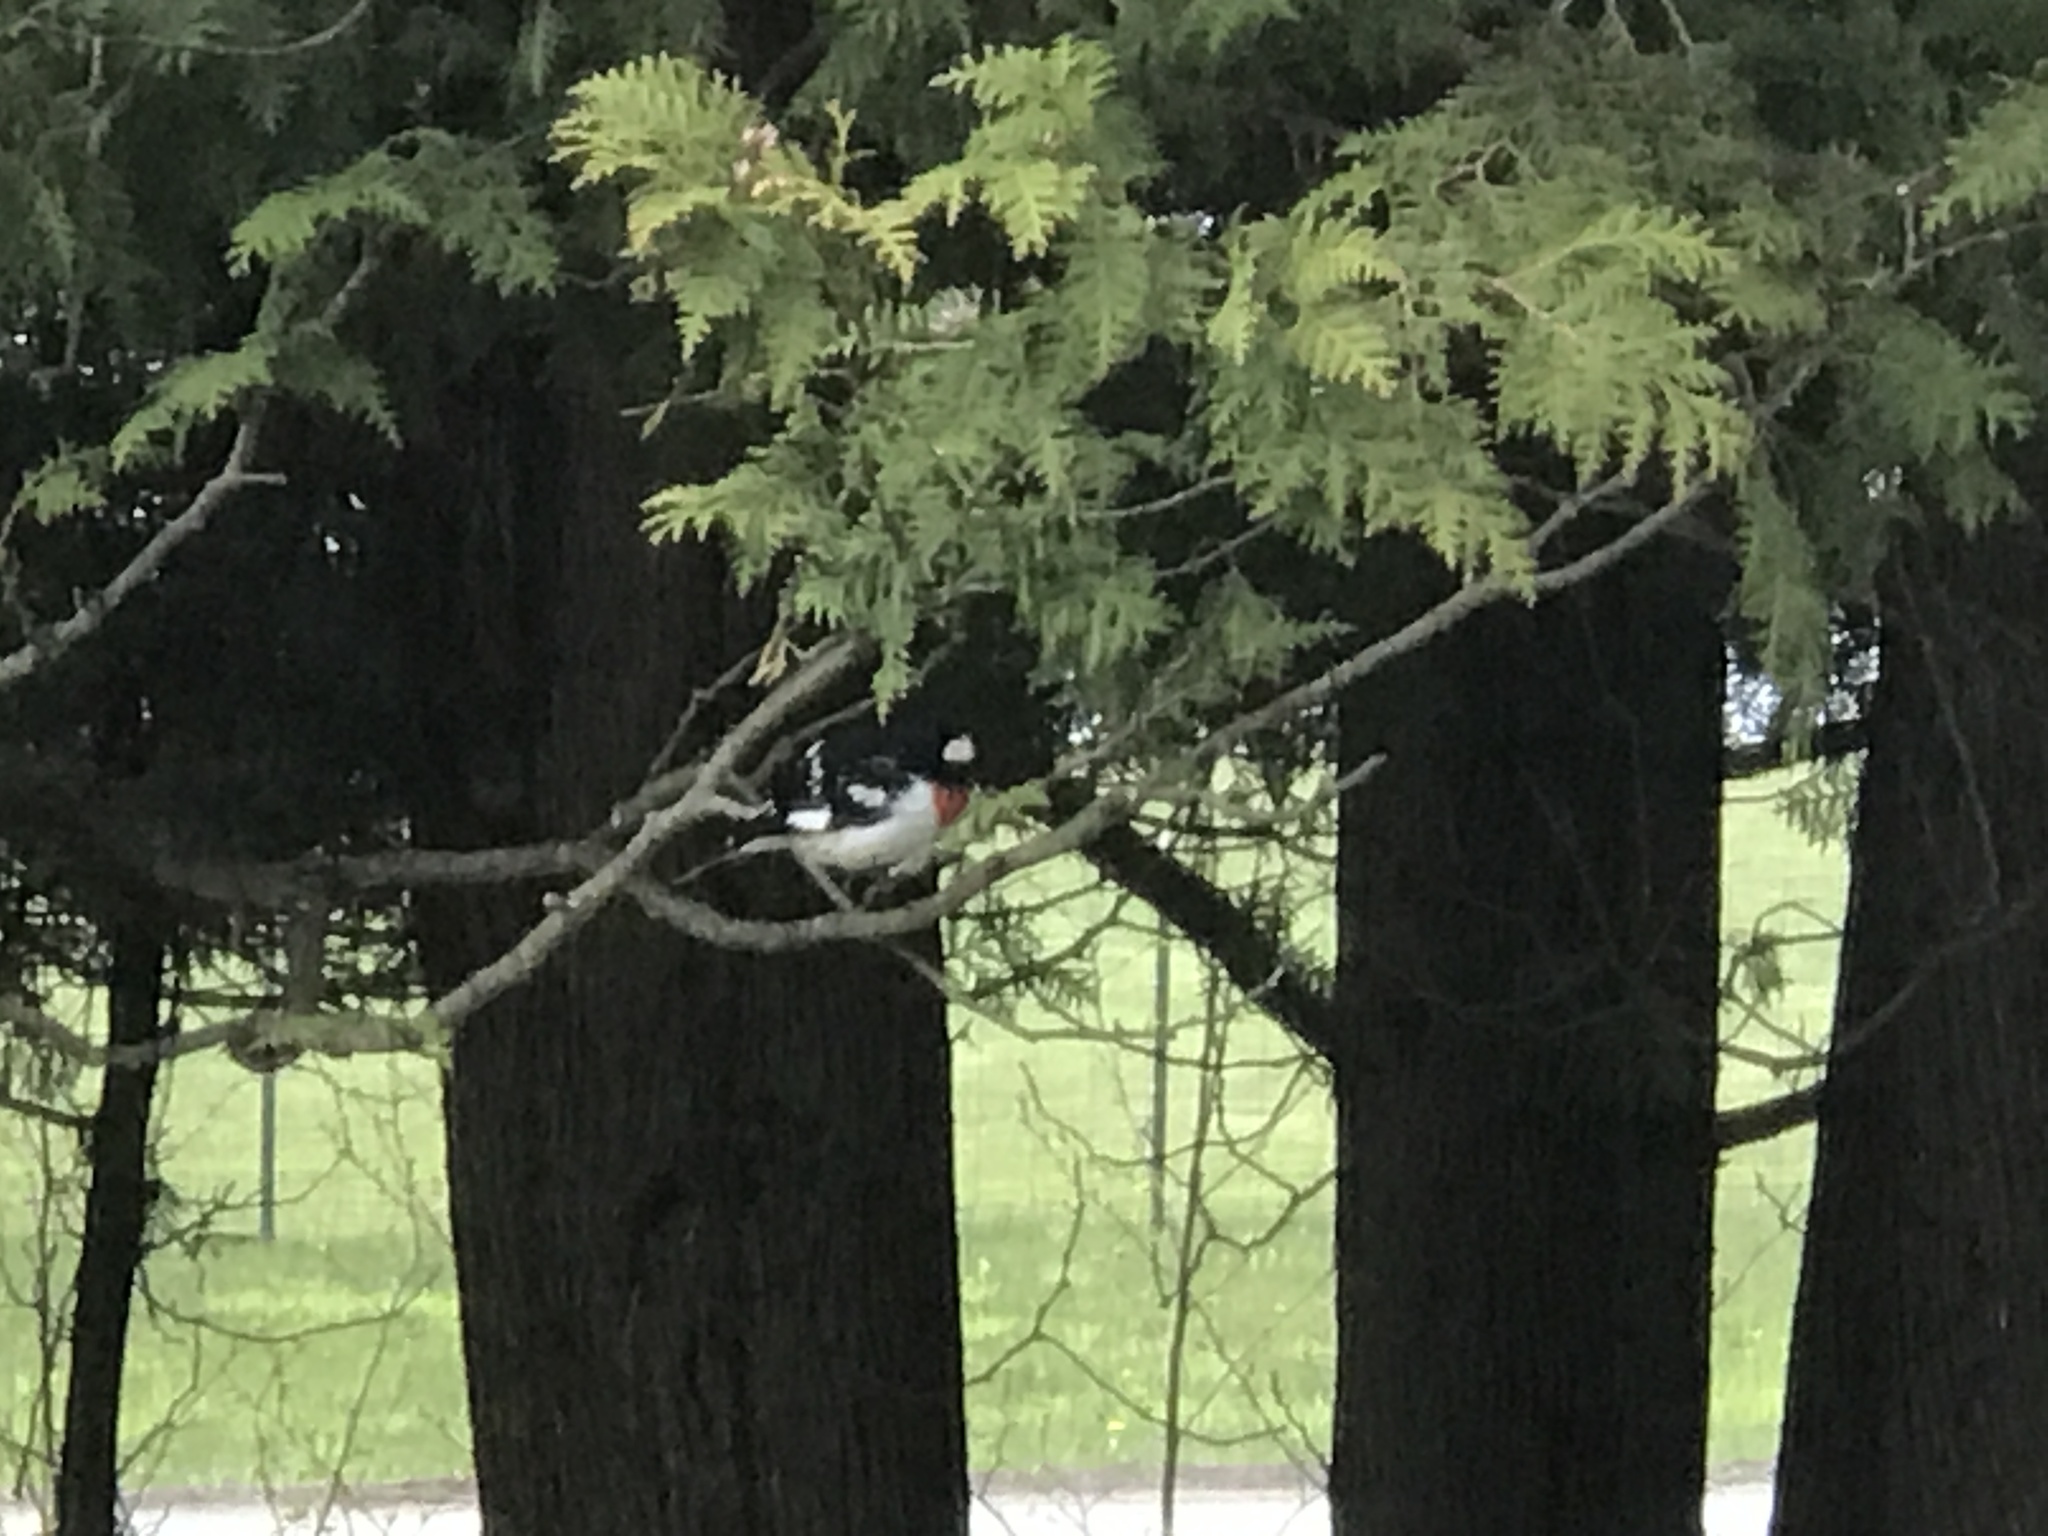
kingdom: Animalia
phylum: Chordata
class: Aves
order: Passeriformes
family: Cardinalidae
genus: Pheucticus
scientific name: Pheucticus ludovicianus
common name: Rose-breasted grosbeak
